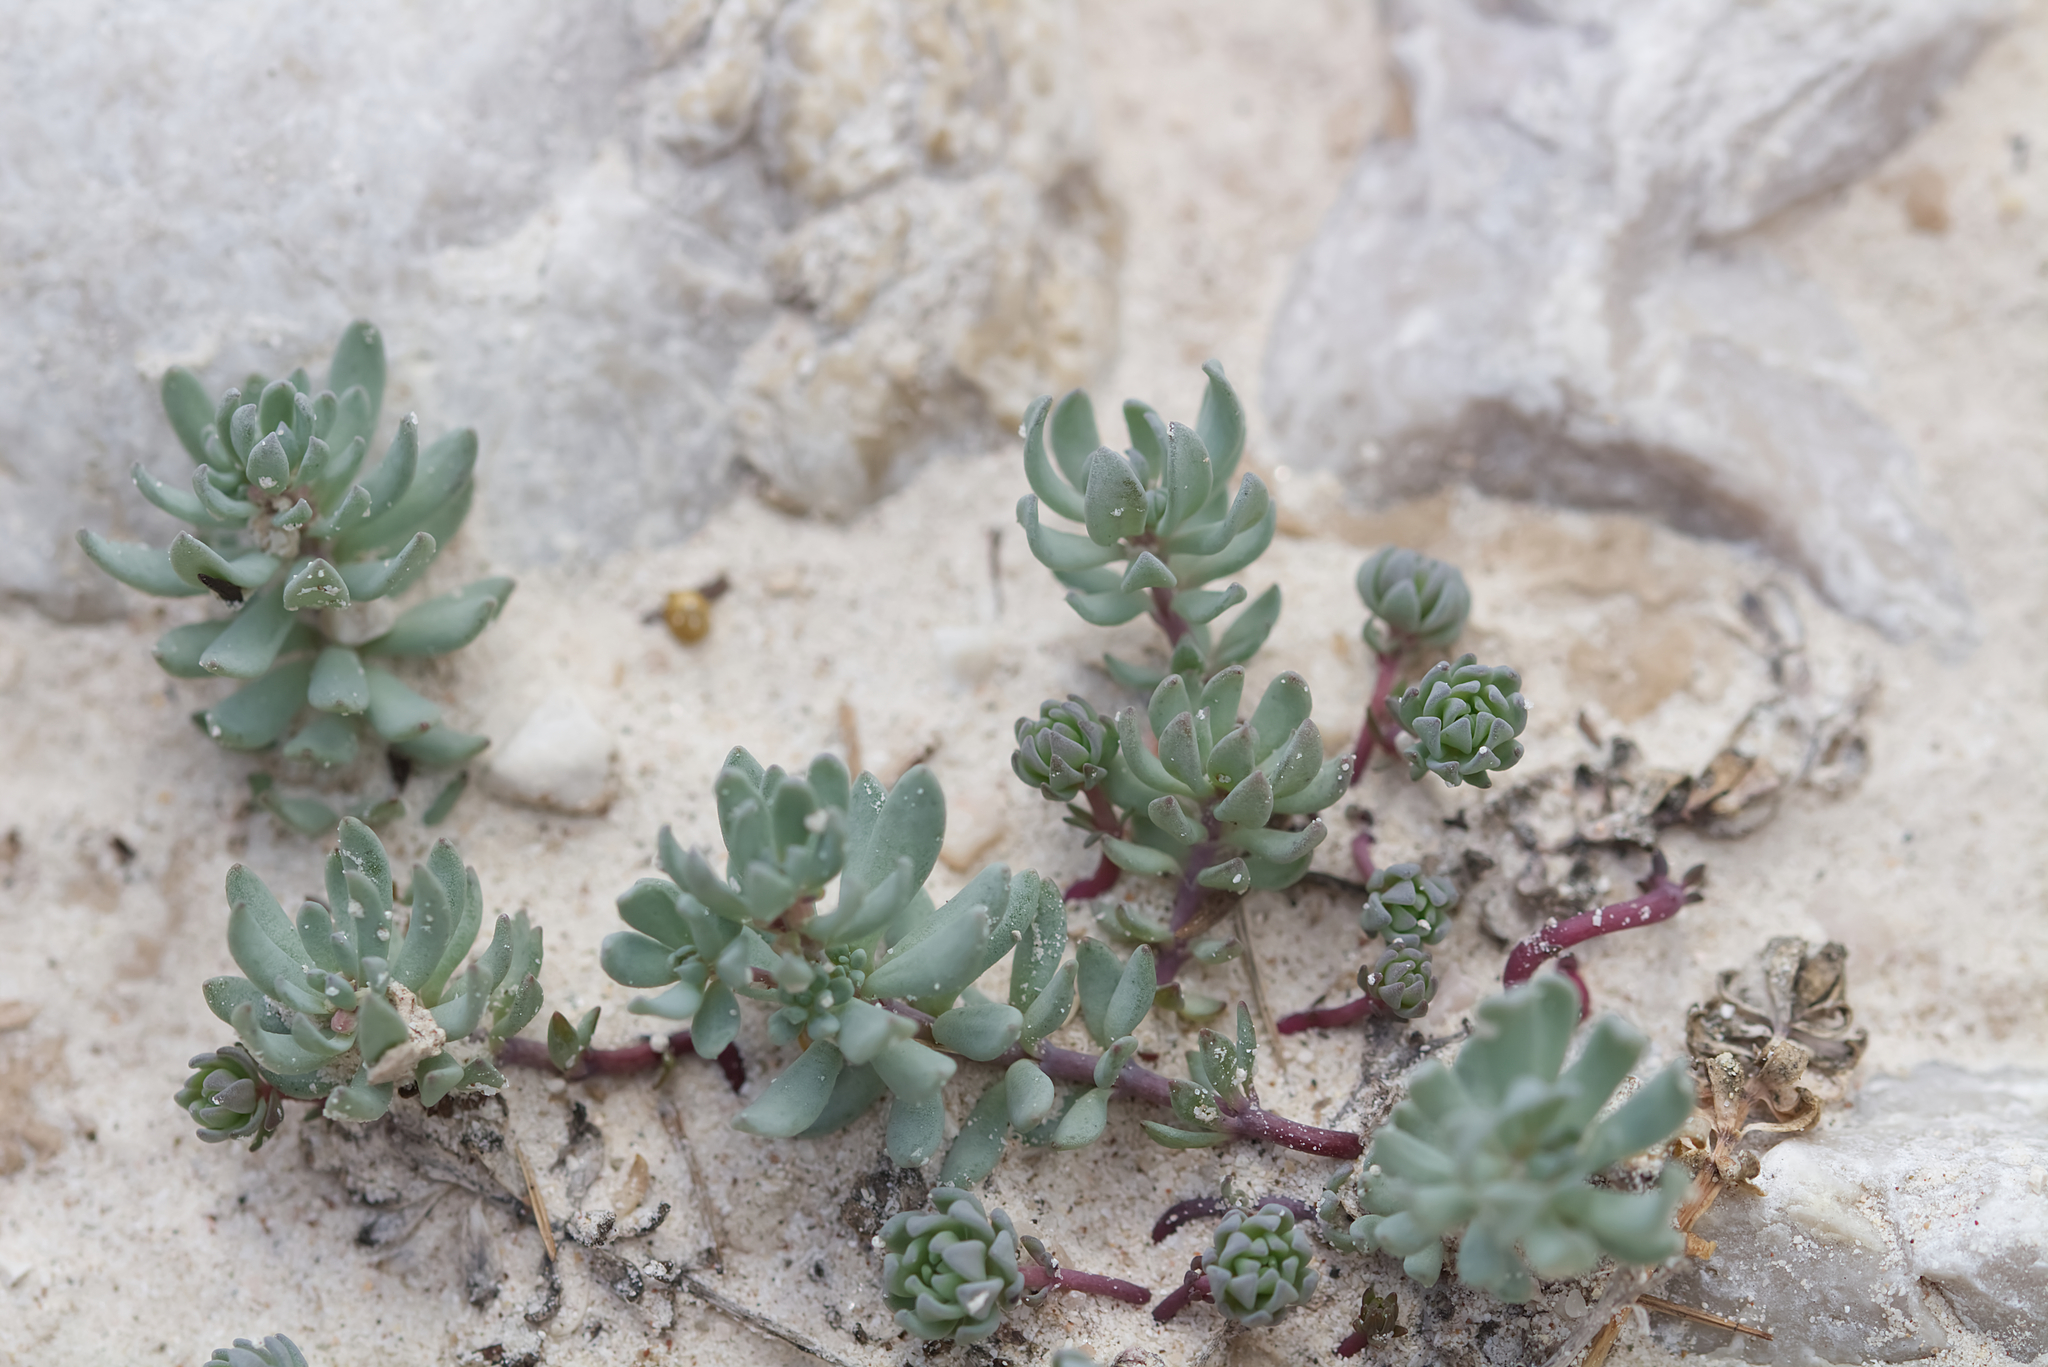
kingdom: Plantae
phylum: Tracheophyta
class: Magnoliopsida
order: Lamiales
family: Plantaginaceae
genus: Linaria
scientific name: Linaria alpina
